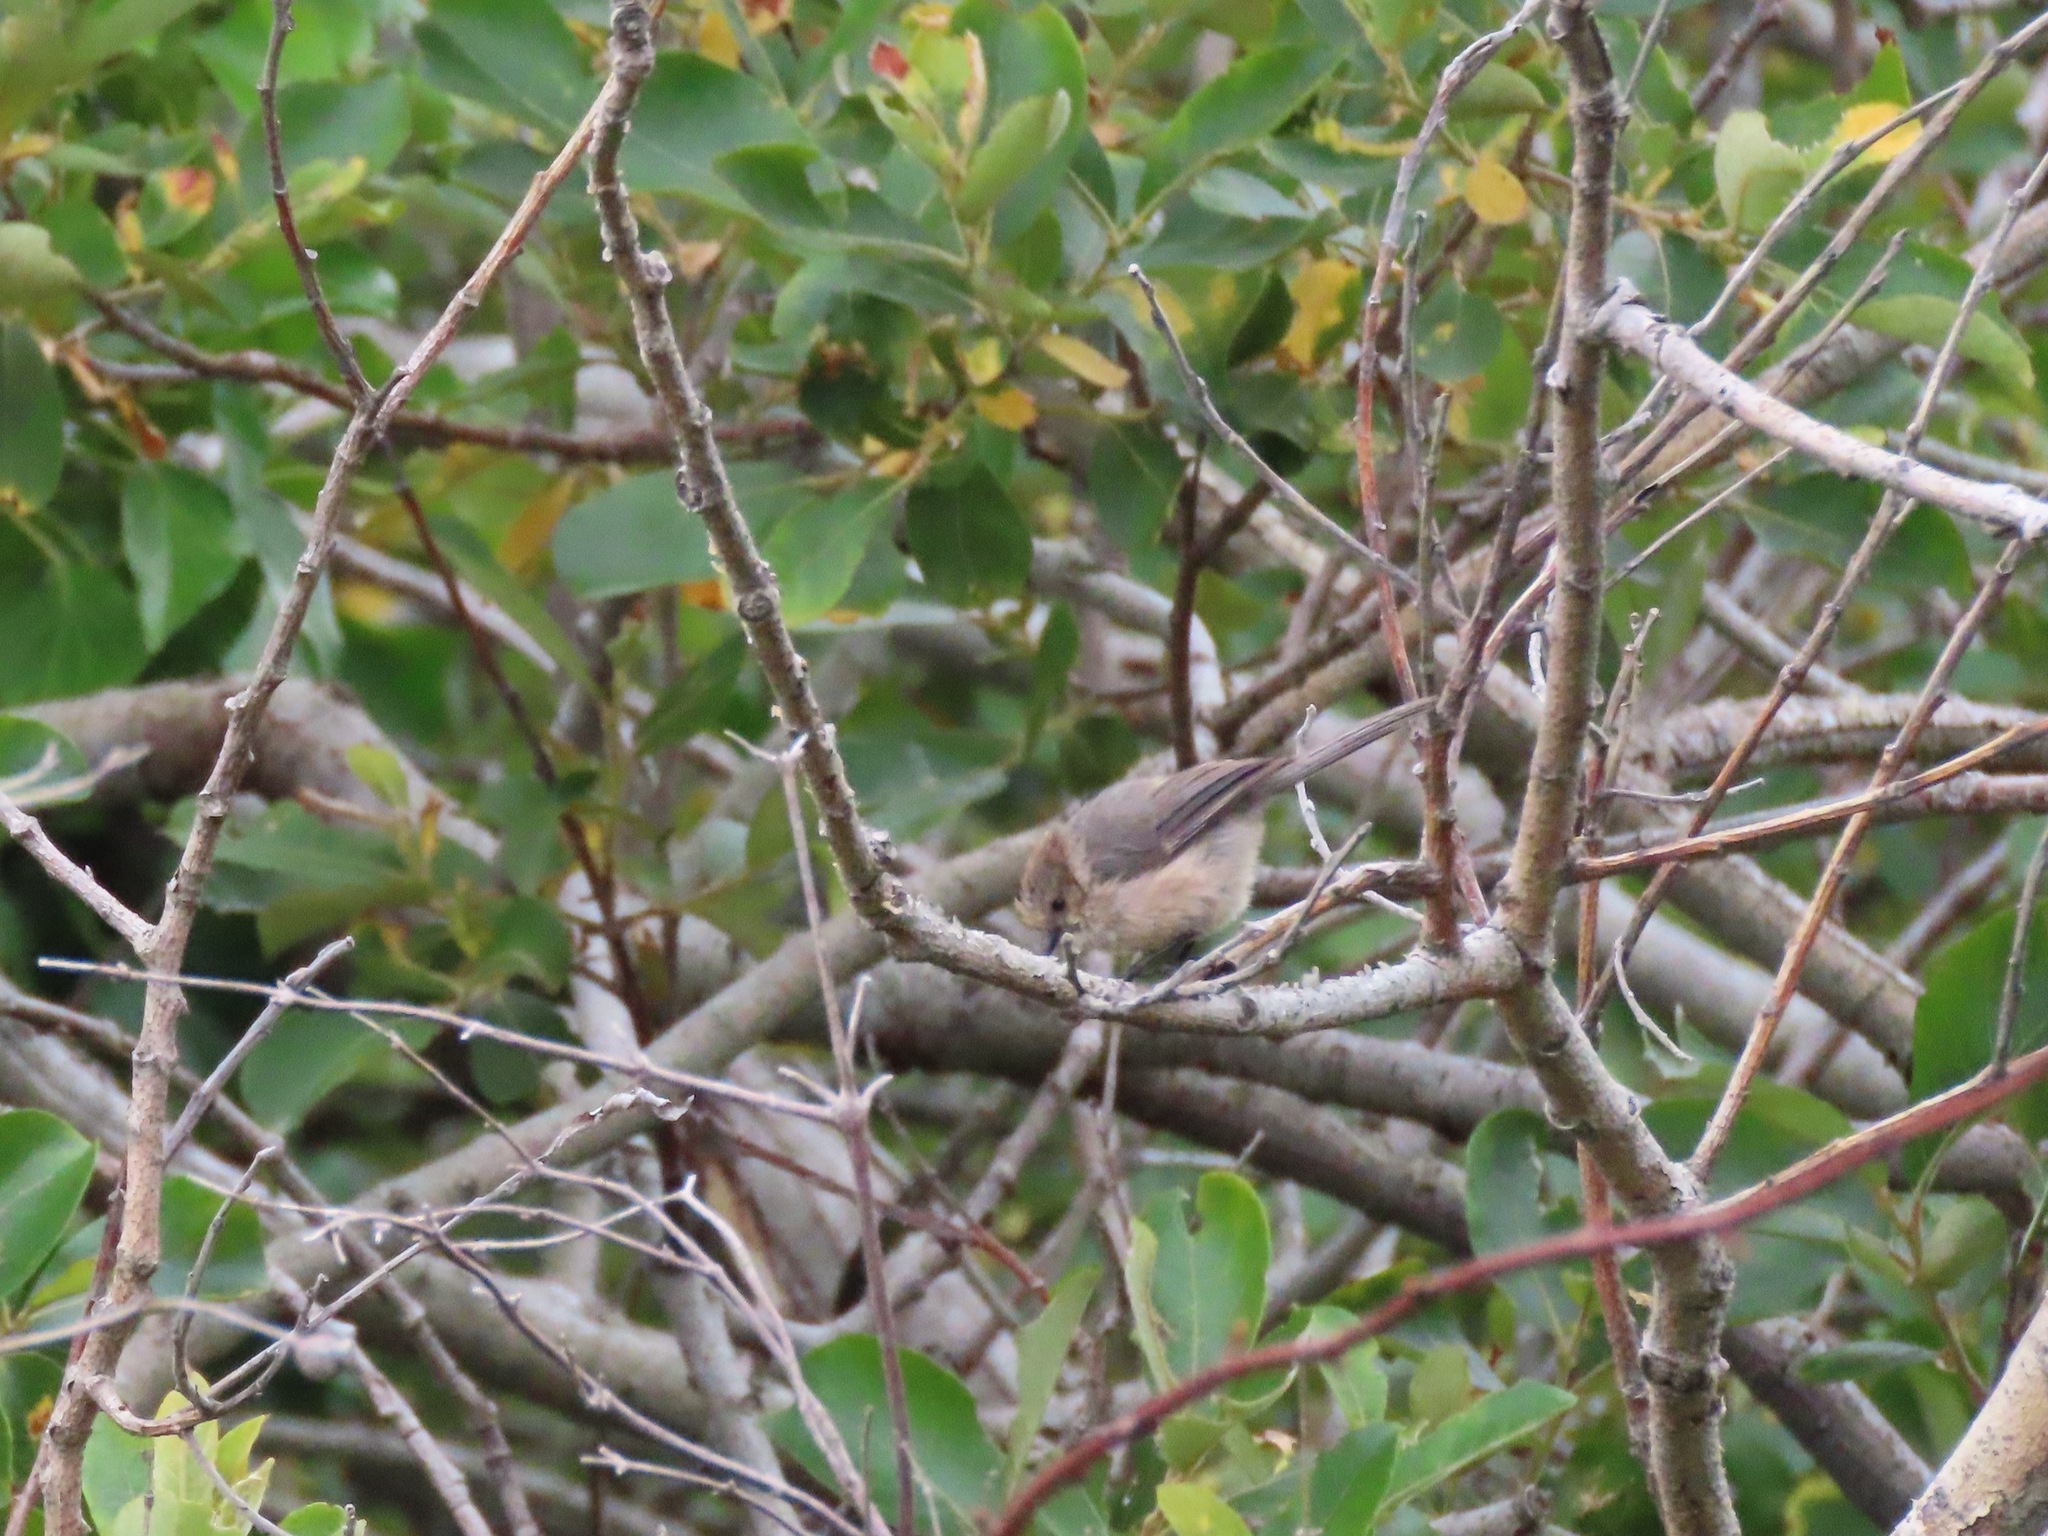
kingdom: Animalia
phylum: Chordata
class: Aves
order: Passeriformes
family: Aegithalidae
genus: Psaltriparus
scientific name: Psaltriparus minimus
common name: American bushtit
